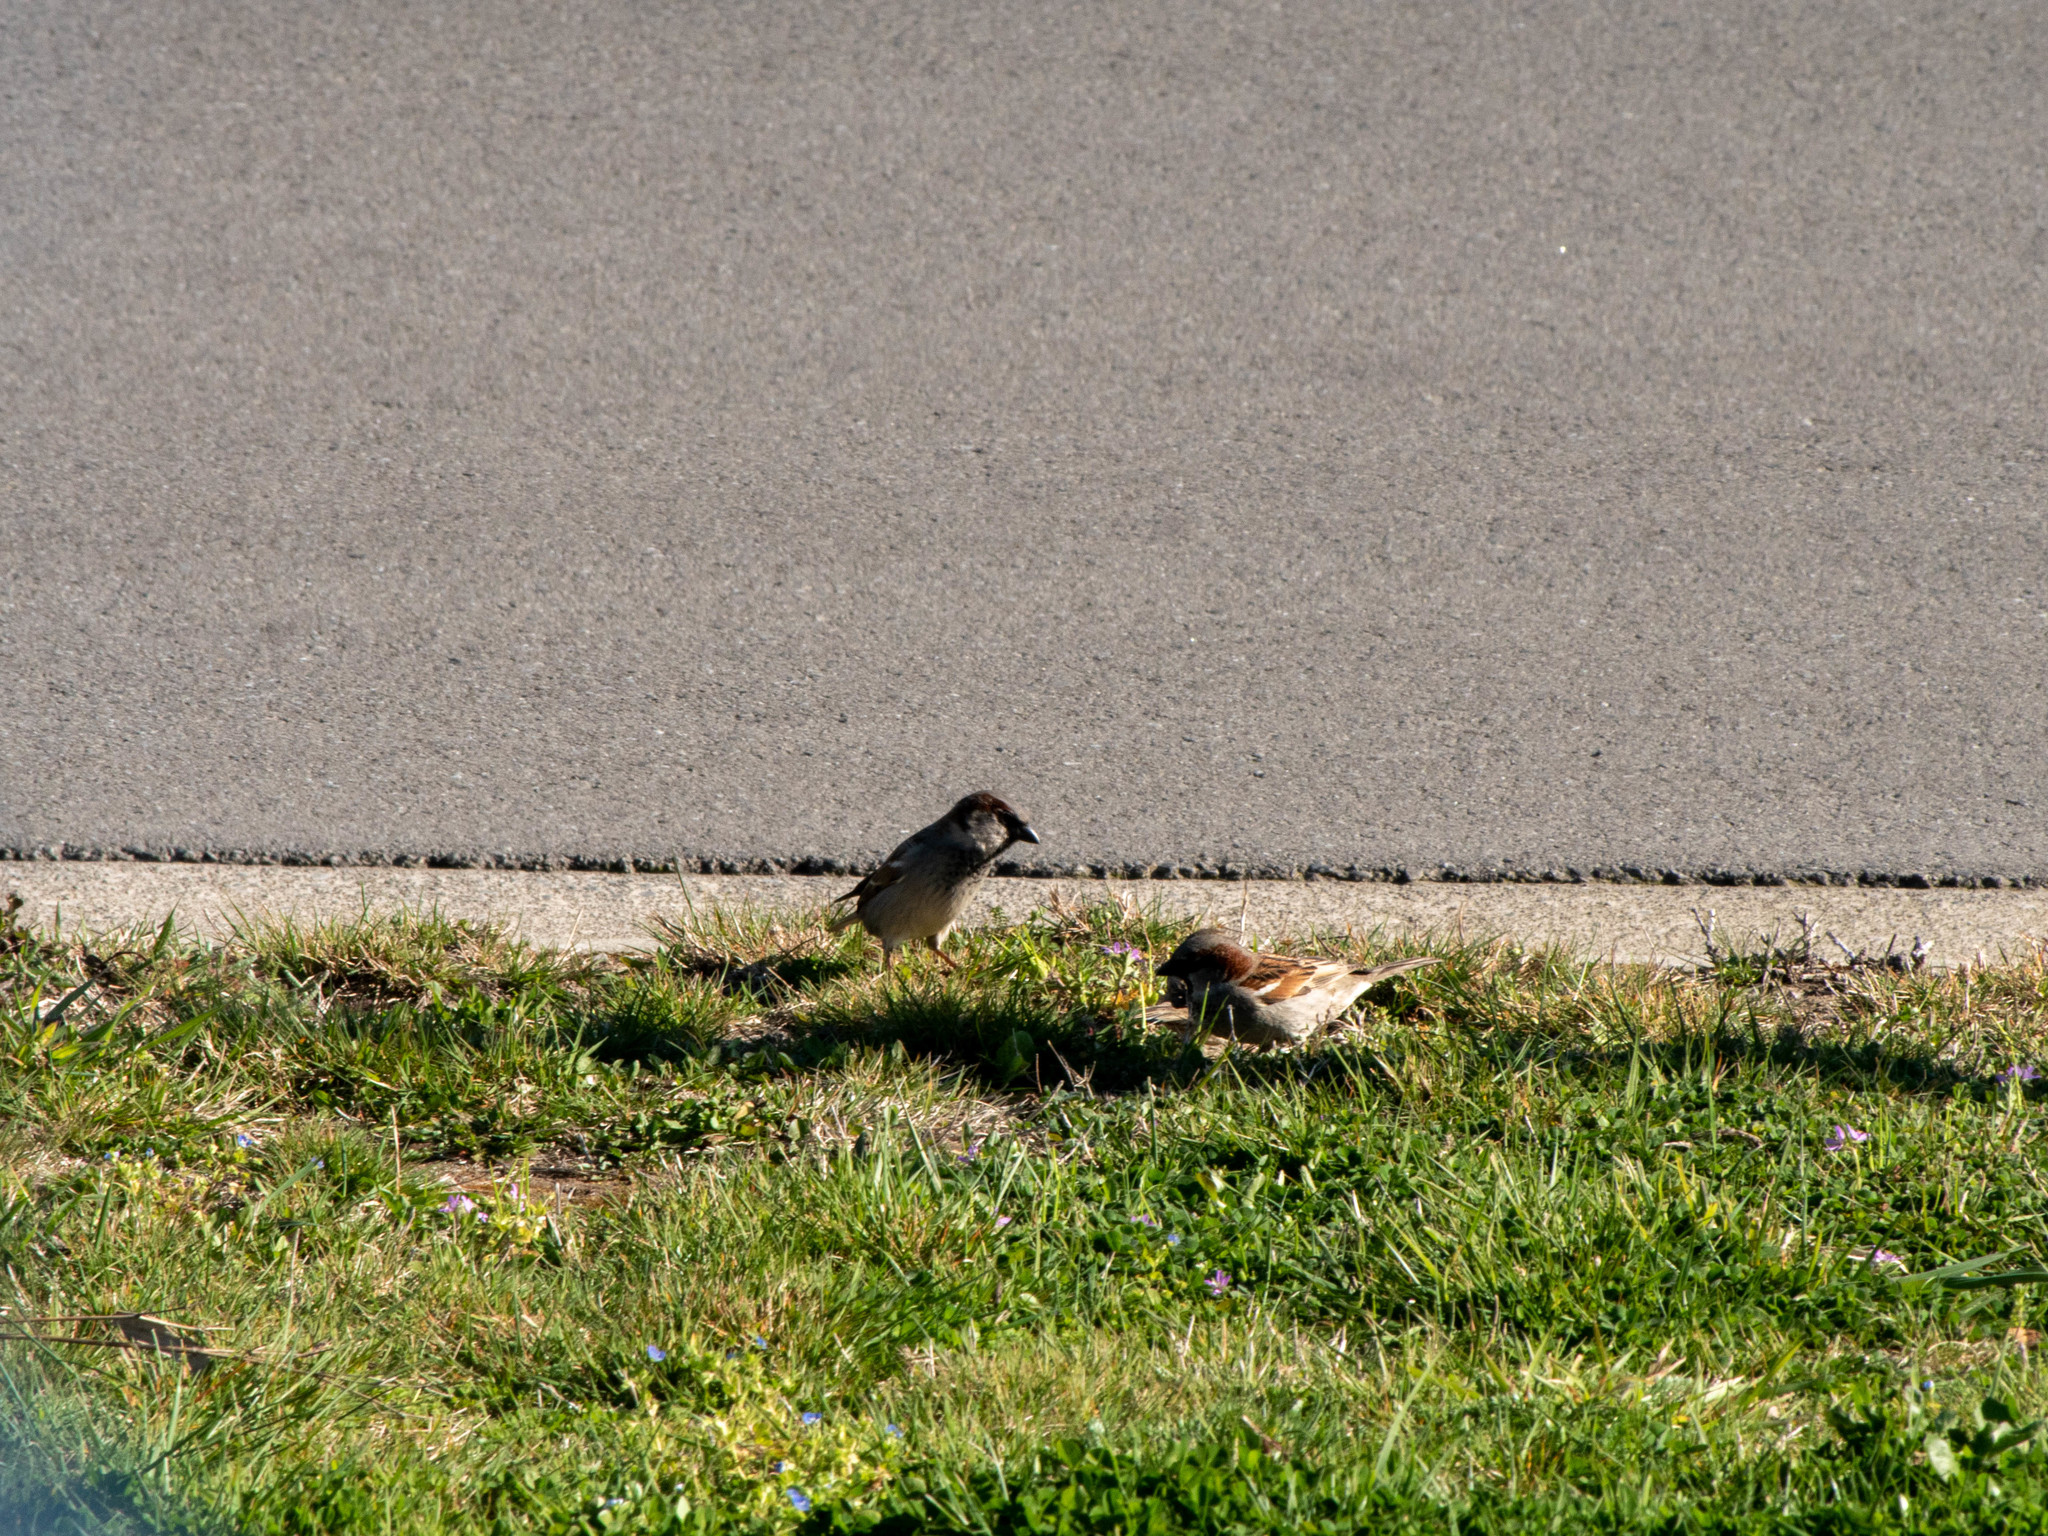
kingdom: Animalia
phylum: Chordata
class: Aves
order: Passeriformes
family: Passeridae
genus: Passer
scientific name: Passer domesticus
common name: House sparrow
